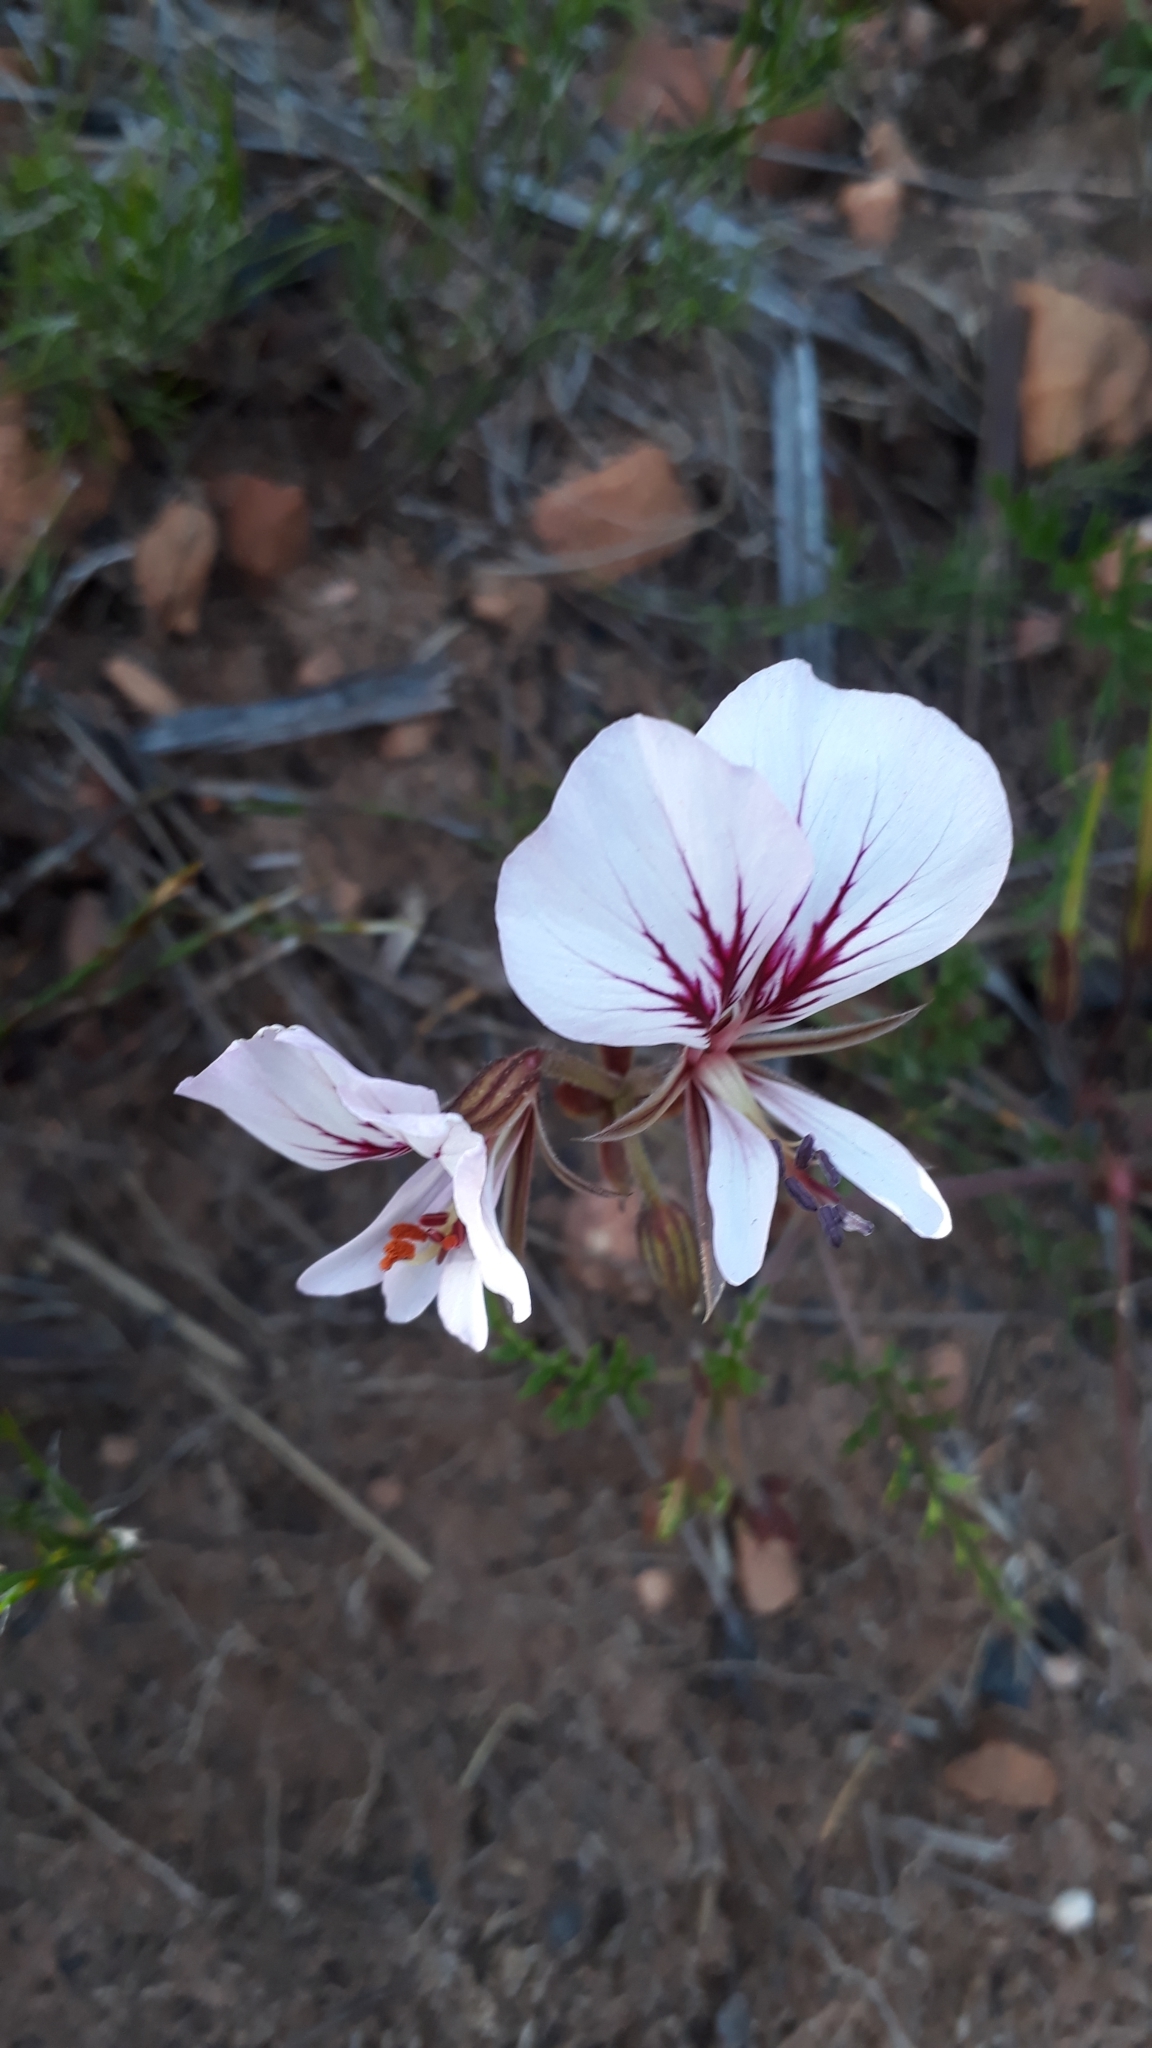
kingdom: Plantae
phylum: Tracheophyta
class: Magnoliopsida
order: Geraniales
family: Geraniaceae
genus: Pelargonium
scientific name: Pelargonium myrrhifolium
